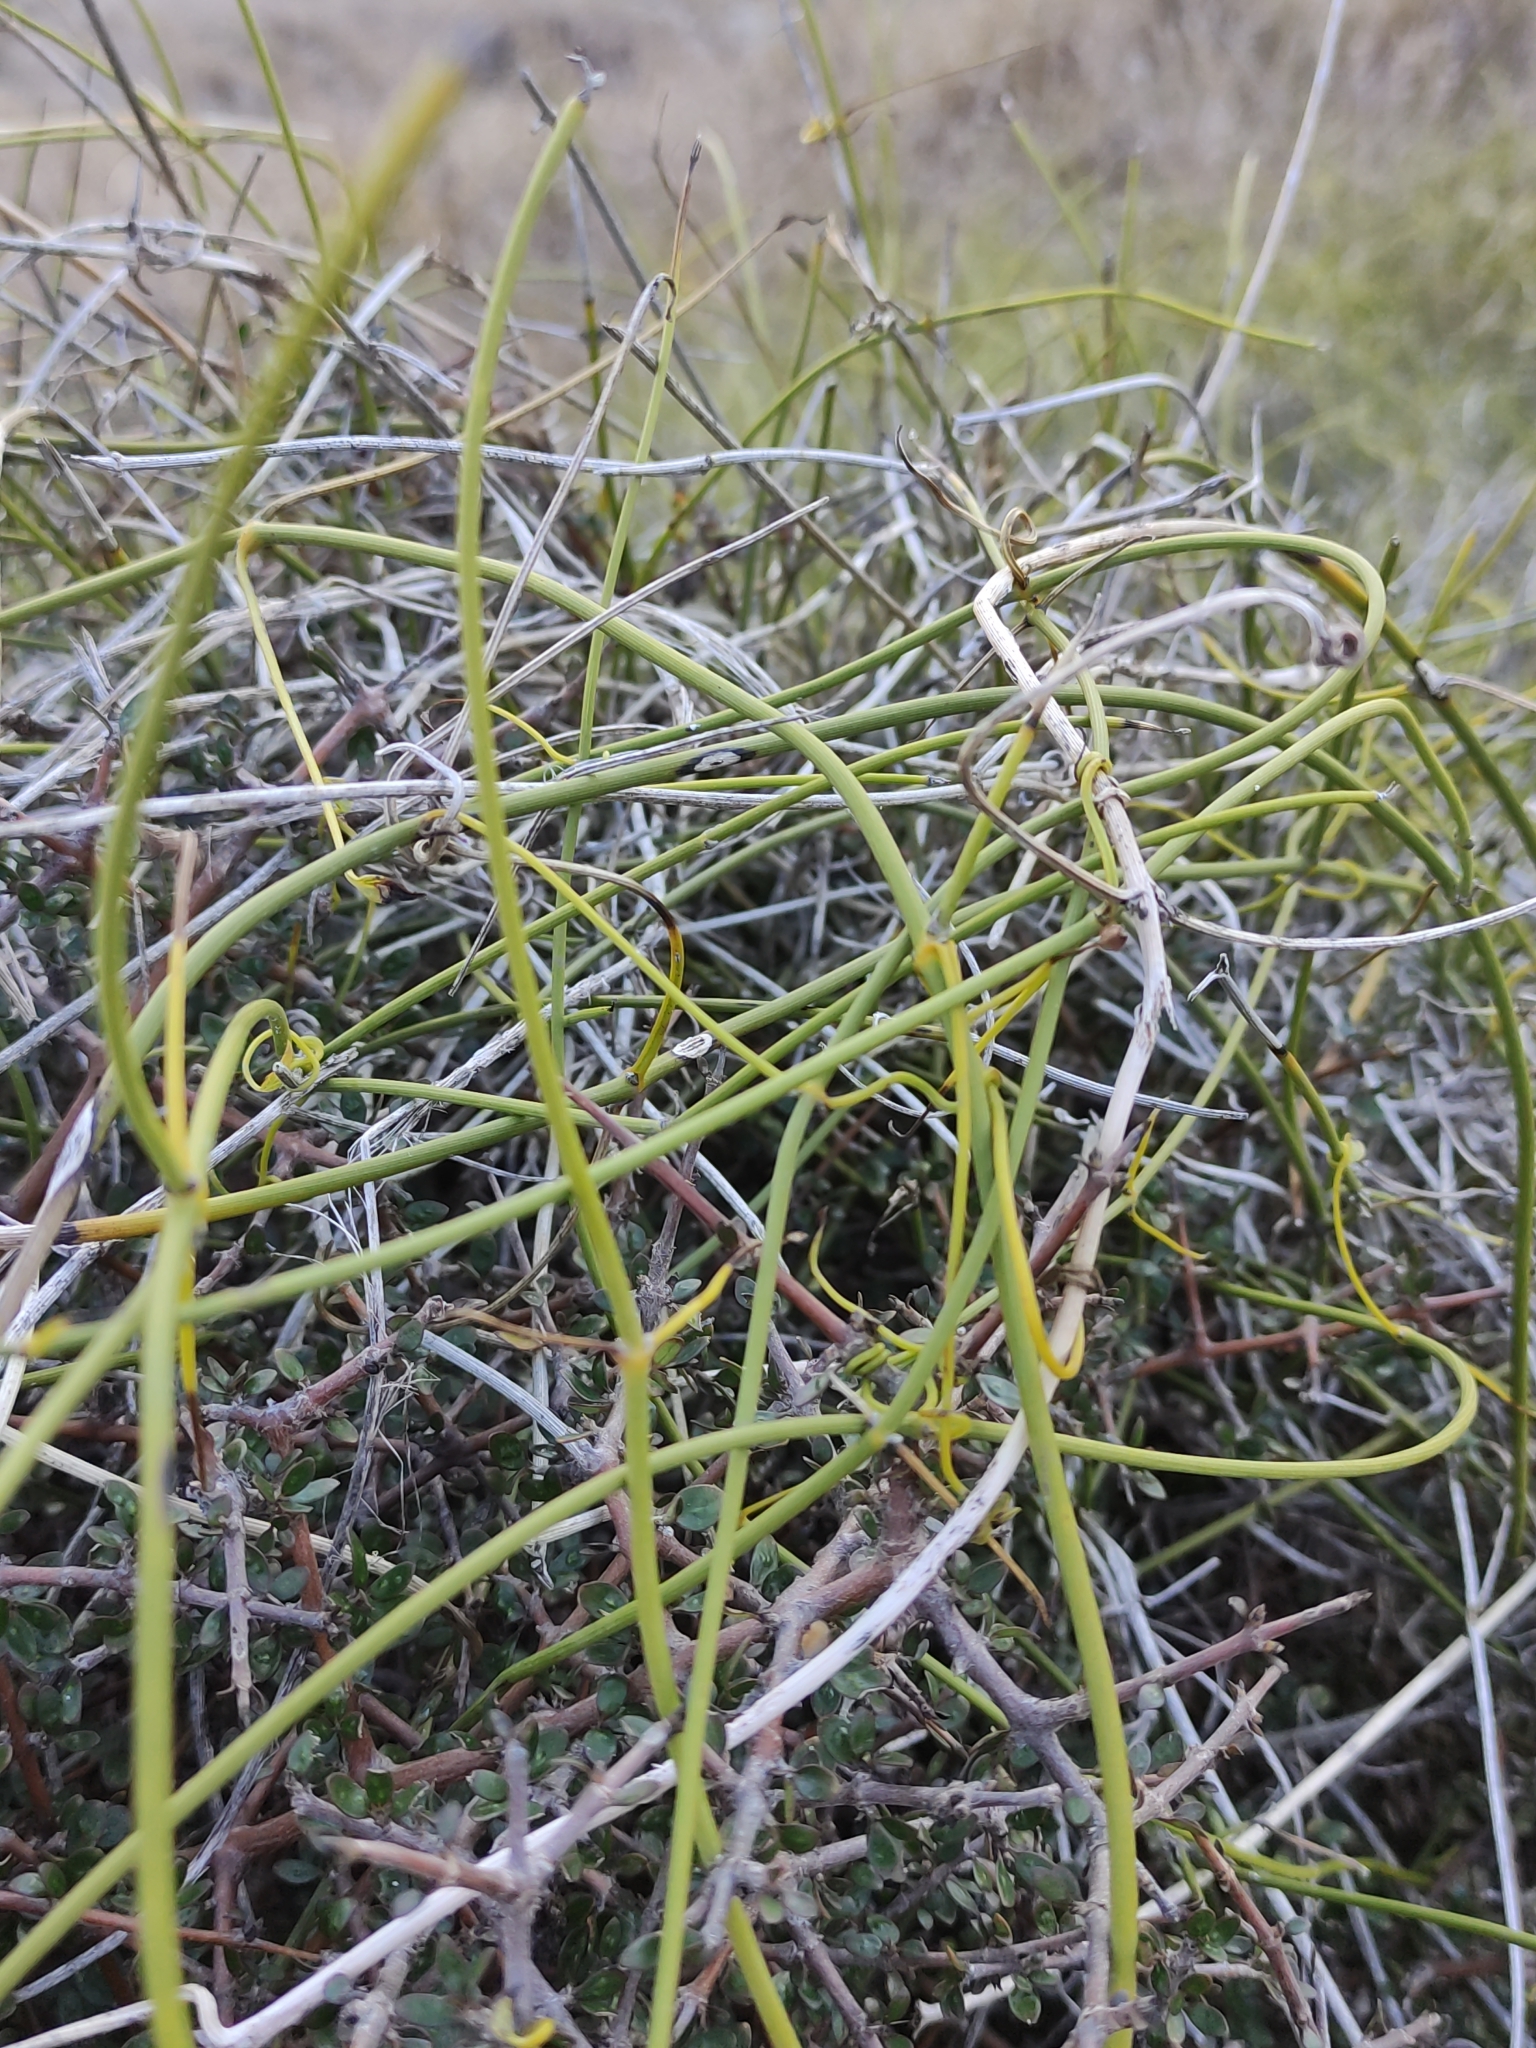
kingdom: Plantae
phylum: Tracheophyta
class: Magnoliopsida
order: Ranunculales
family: Ranunculaceae
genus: Clematis
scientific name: Clematis afoliata
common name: Rush-stem clematis
